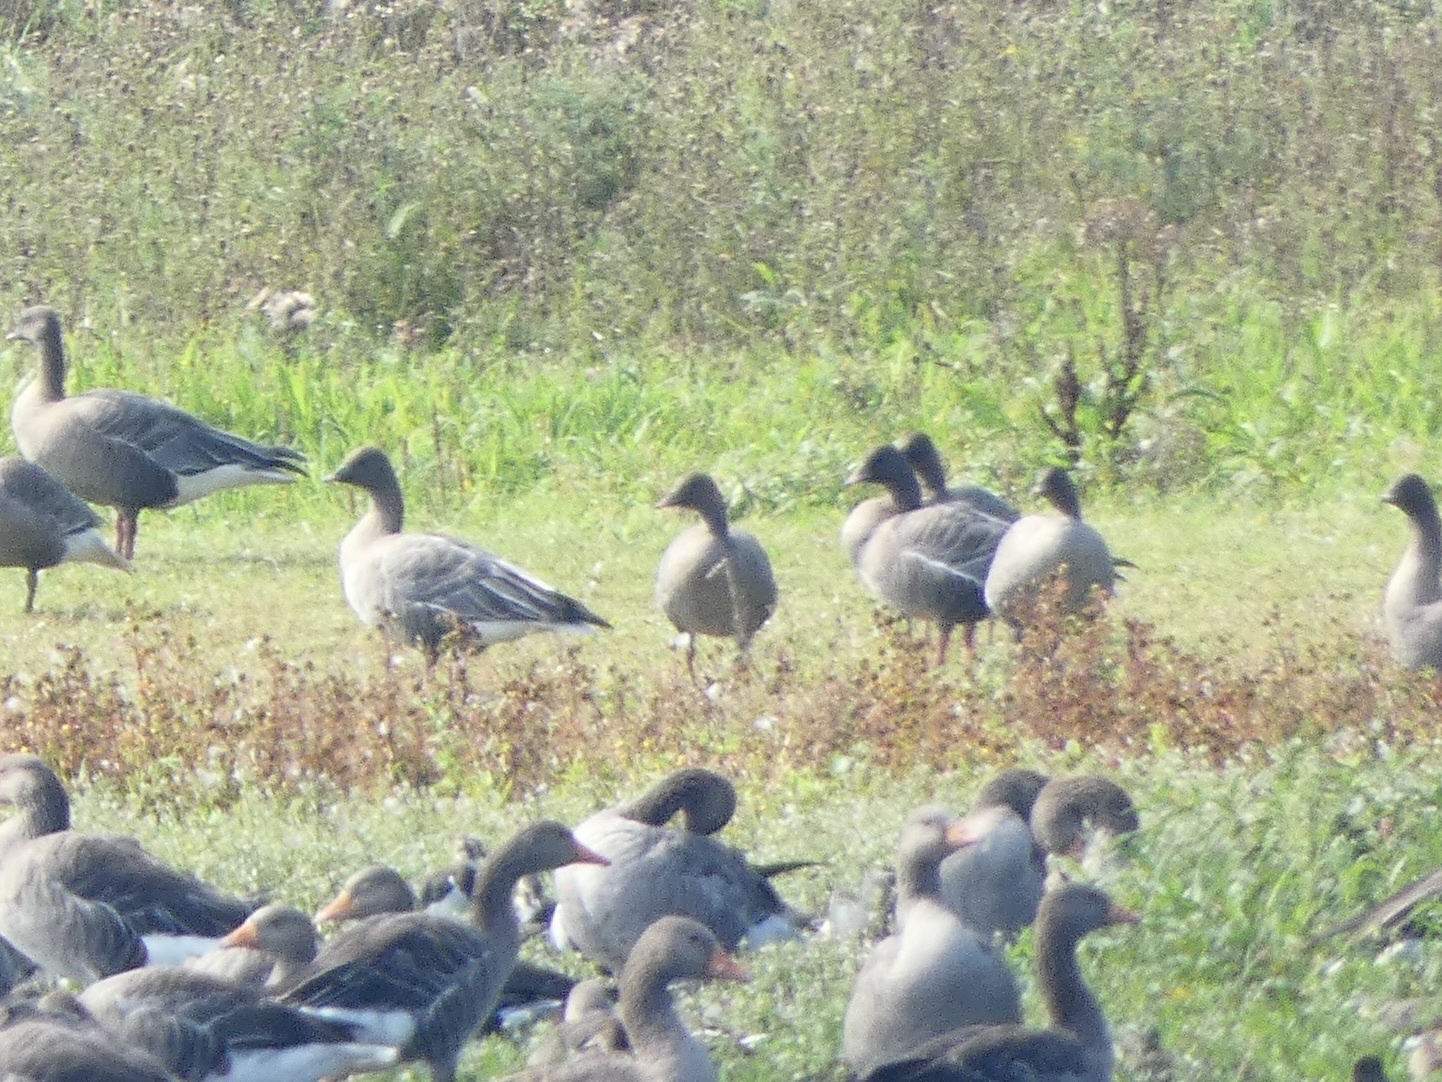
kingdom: Animalia
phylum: Chordata
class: Aves
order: Anseriformes
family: Anatidae
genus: Anser
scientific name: Anser brachyrhynchus
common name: Pink-footed goose
